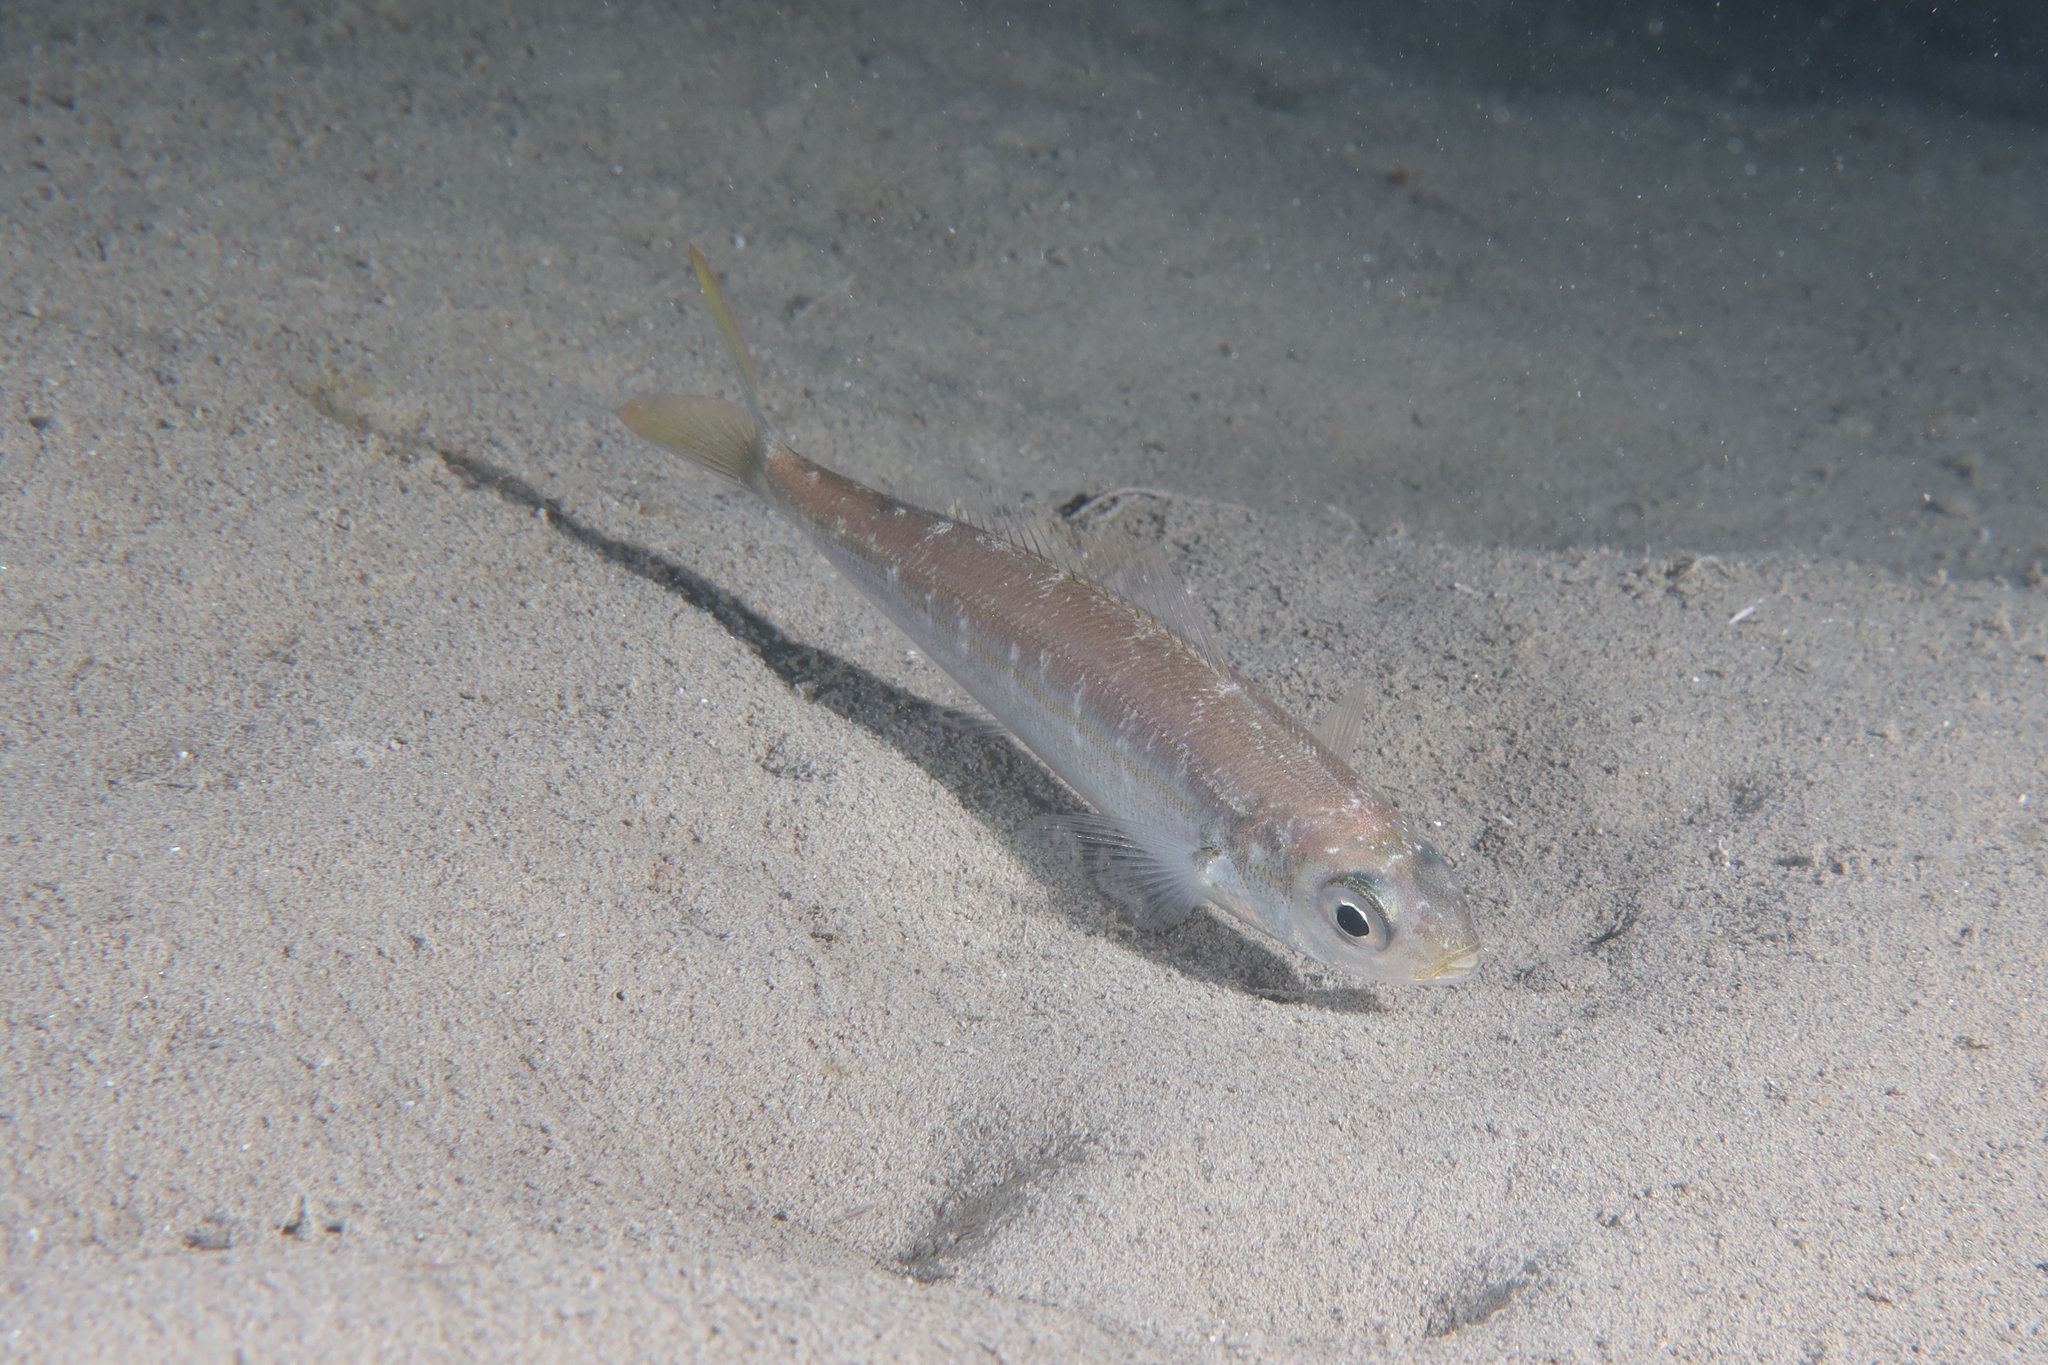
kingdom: Animalia
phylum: Chordata
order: Perciformes
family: Sparidae
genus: Boops
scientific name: Boops boops
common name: Bogue
